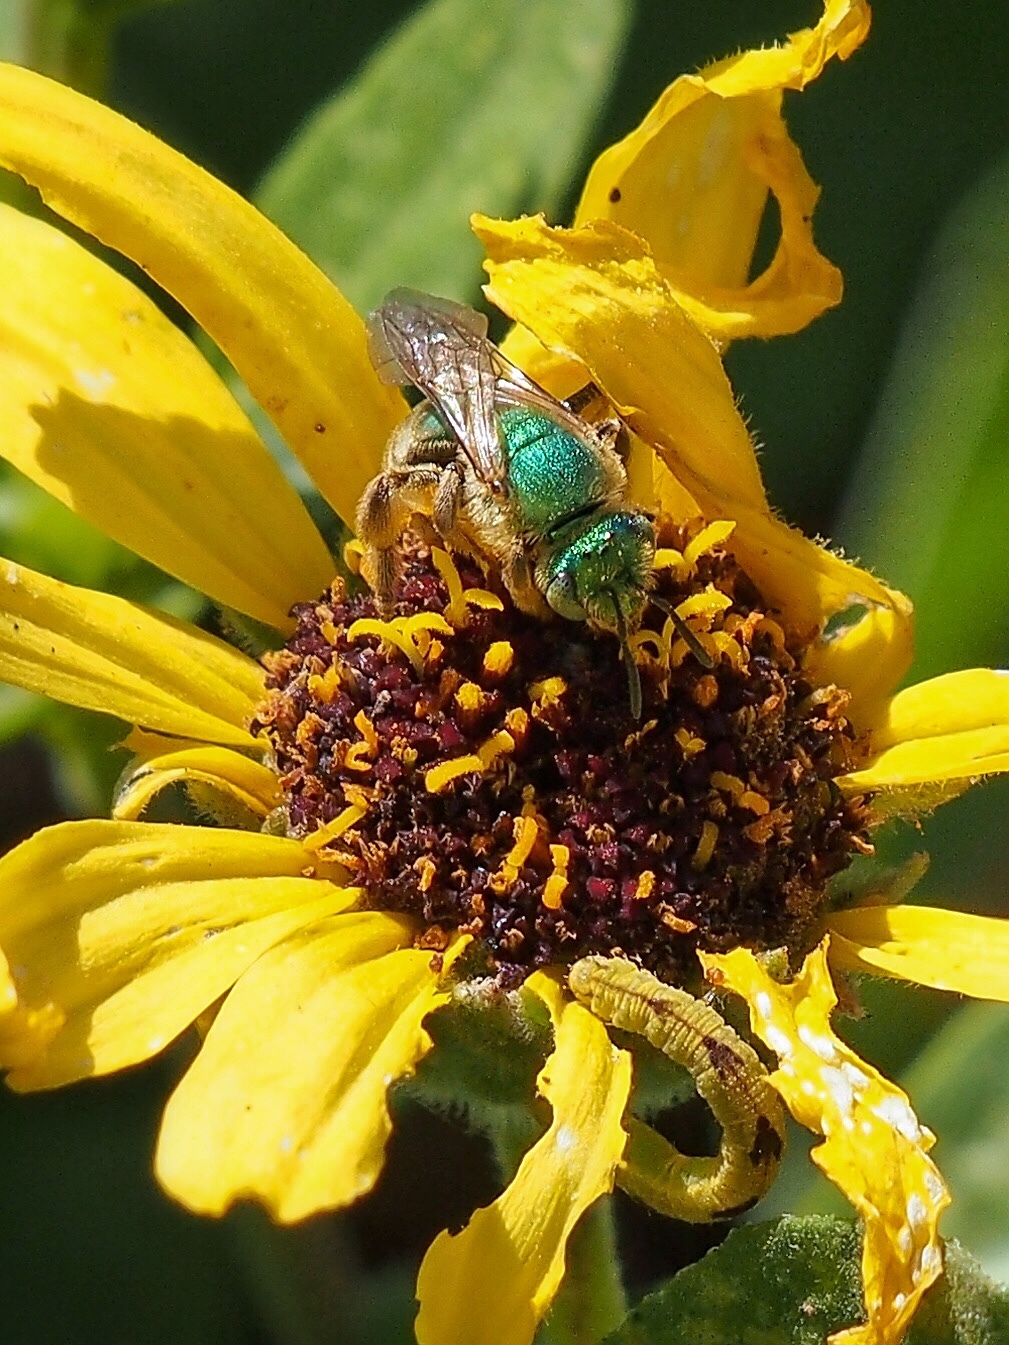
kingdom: Animalia
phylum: Arthropoda
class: Insecta
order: Hymenoptera
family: Halictidae
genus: Agapostemon
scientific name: Agapostemon texanus
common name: Texas striped sweat bee
